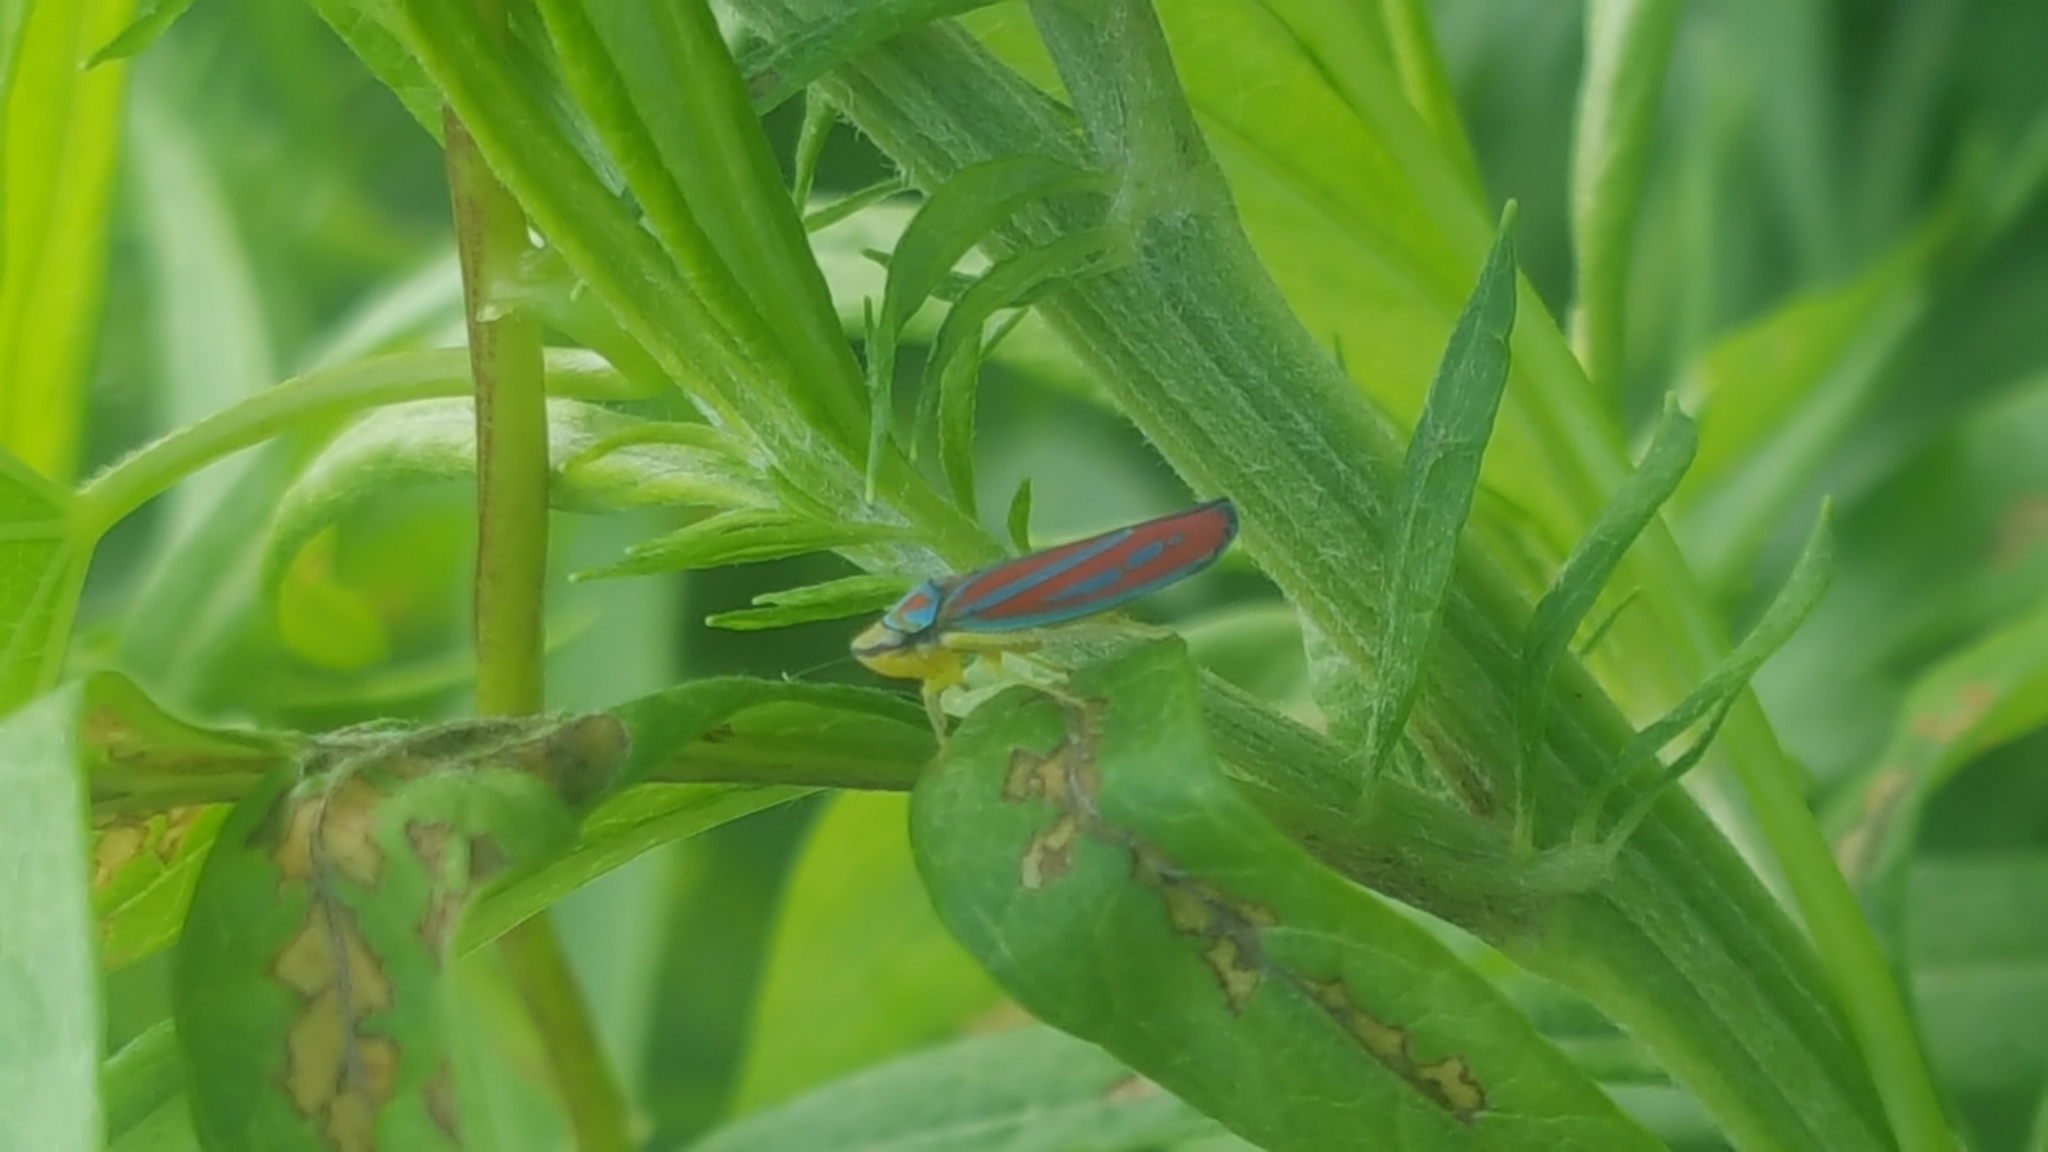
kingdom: Animalia
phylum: Arthropoda
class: Insecta
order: Hemiptera
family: Cicadellidae
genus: Graphocephala
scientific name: Graphocephala coccinea
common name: Candy-striped leafhopper
